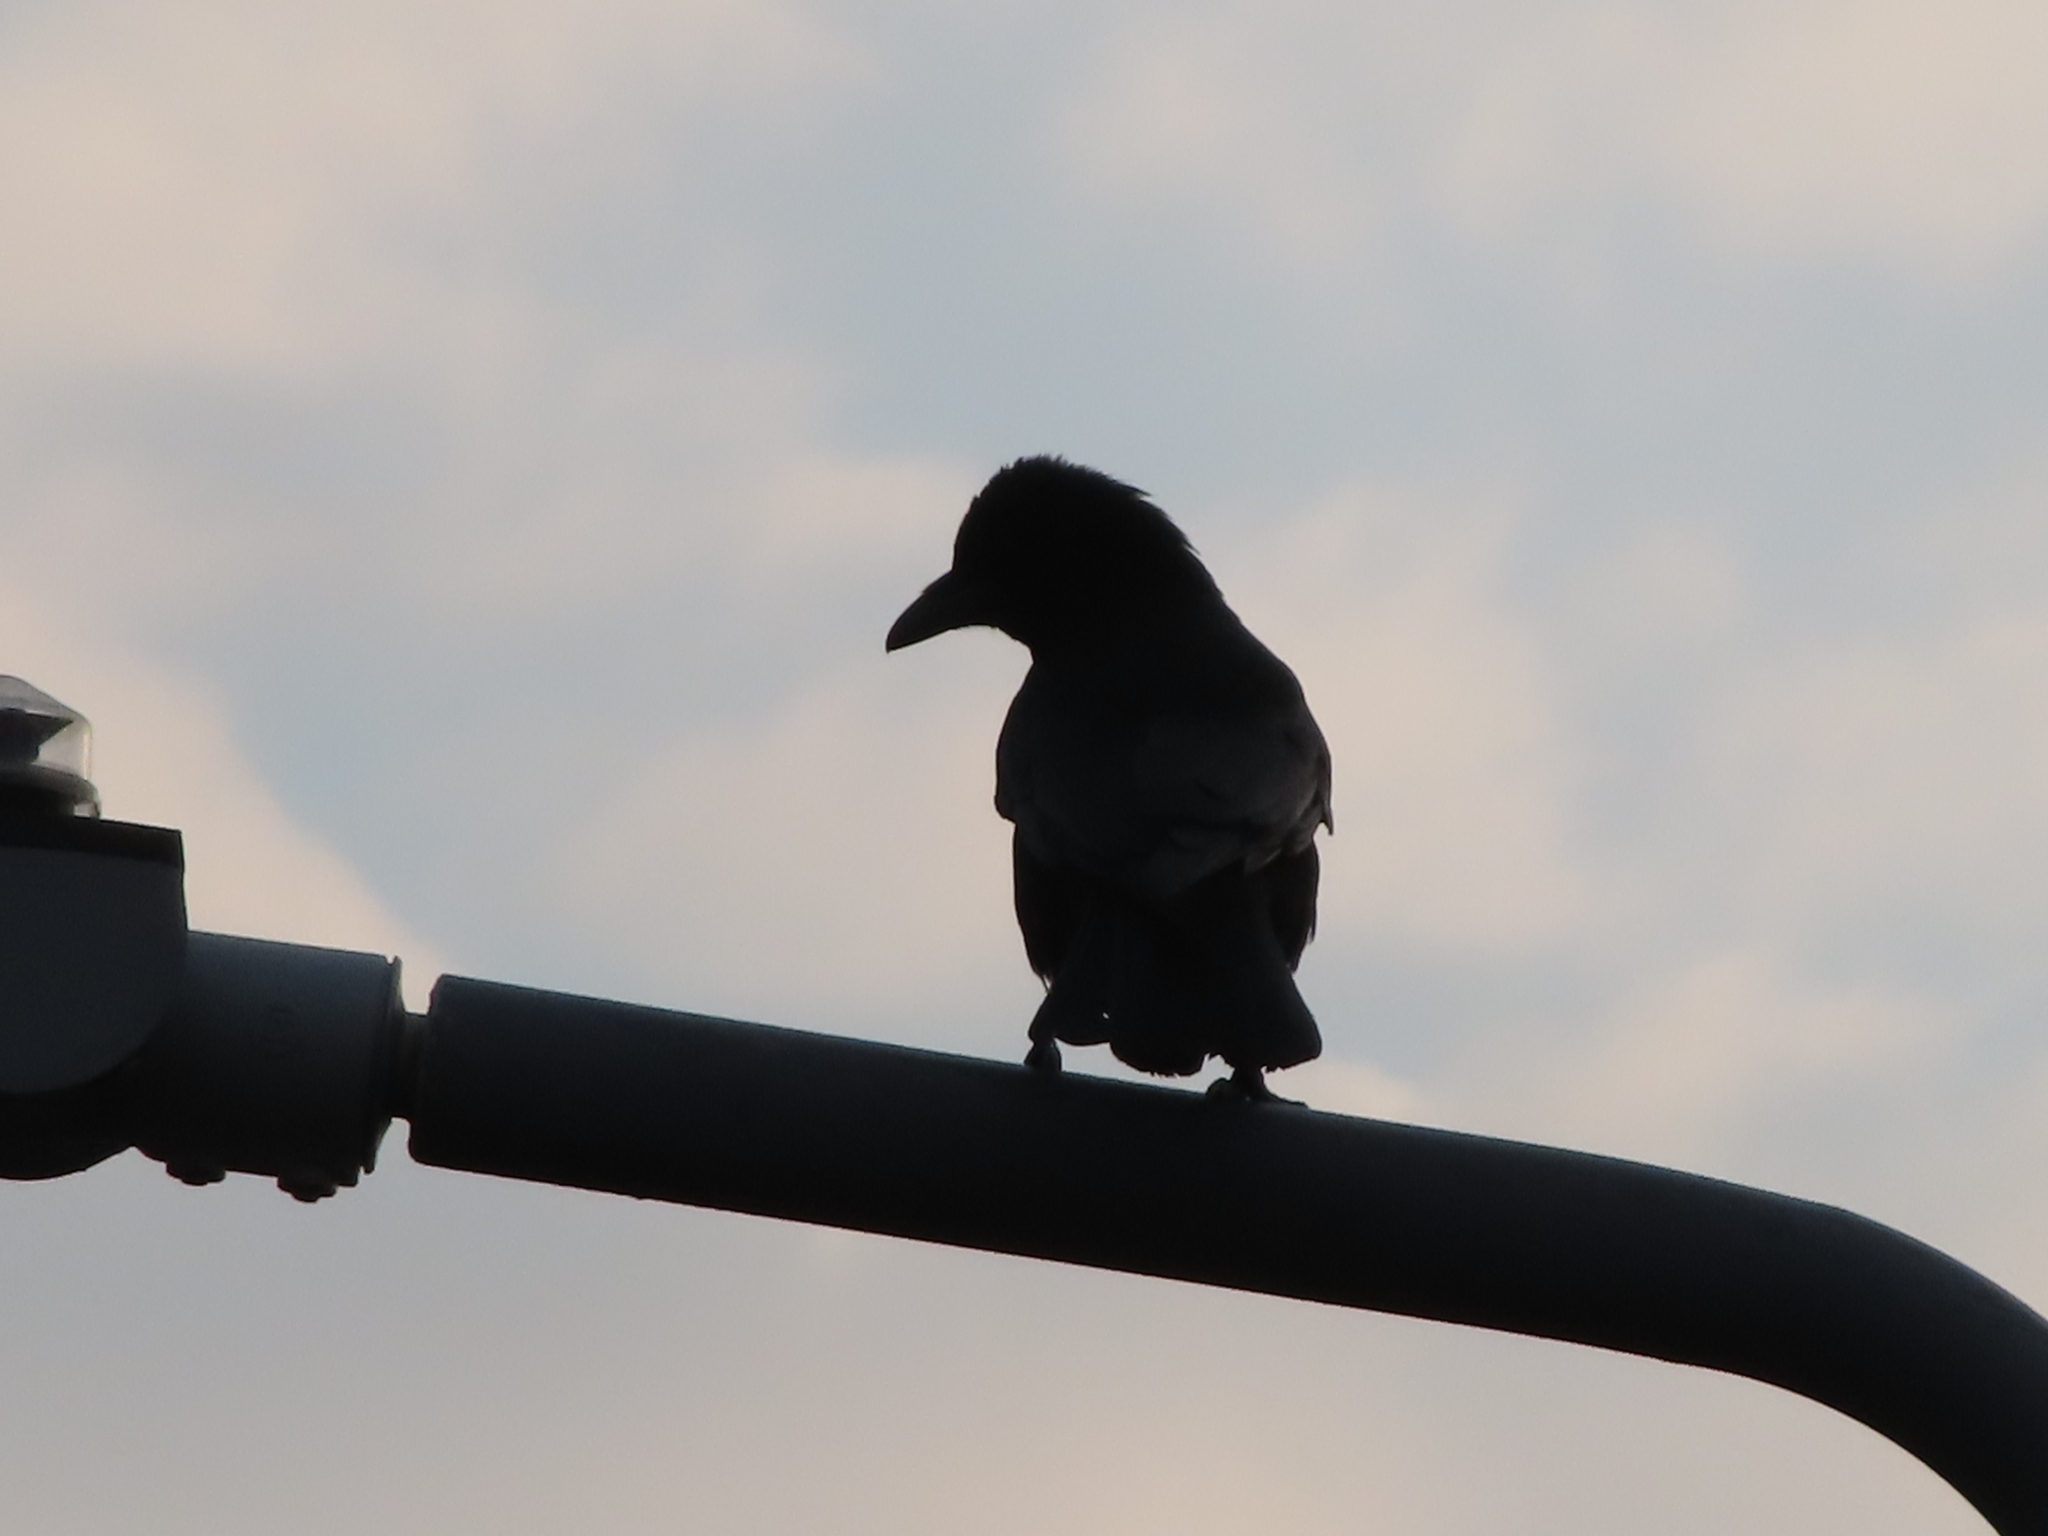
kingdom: Animalia
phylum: Chordata
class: Aves
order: Passeriformes
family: Corvidae
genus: Corvus
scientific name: Corvus corone
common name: Carrion crow
